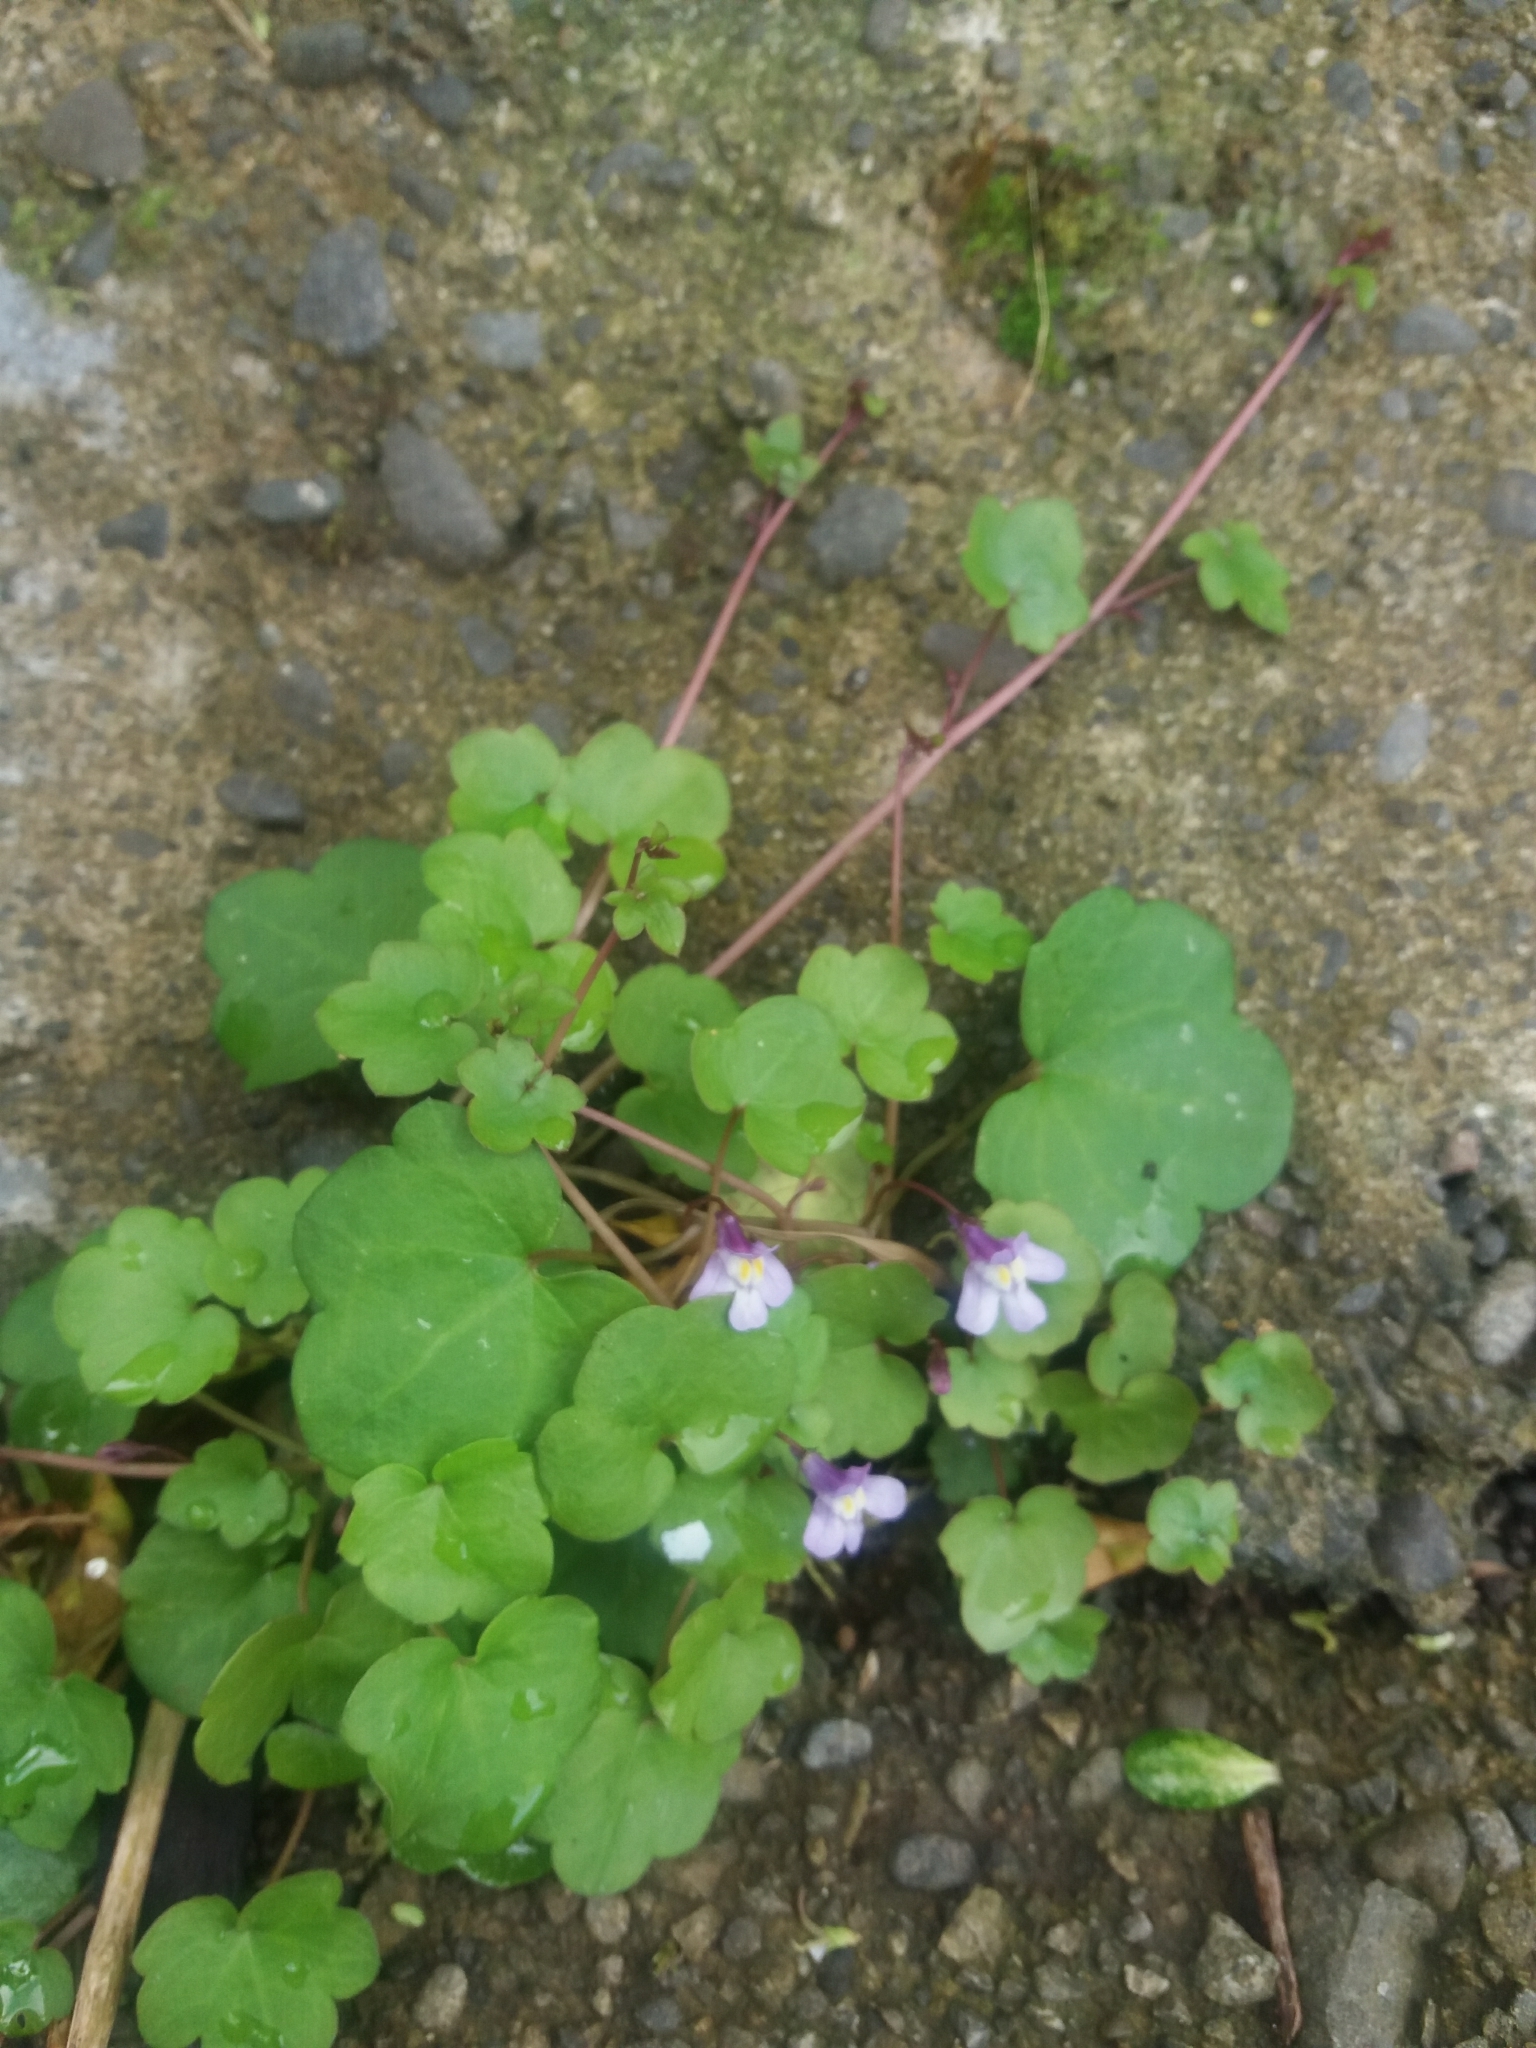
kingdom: Plantae
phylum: Tracheophyta
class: Magnoliopsida
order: Lamiales
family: Plantaginaceae
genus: Cymbalaria
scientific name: Cymbalaria muralis
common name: Ivy-leaved toadflax
